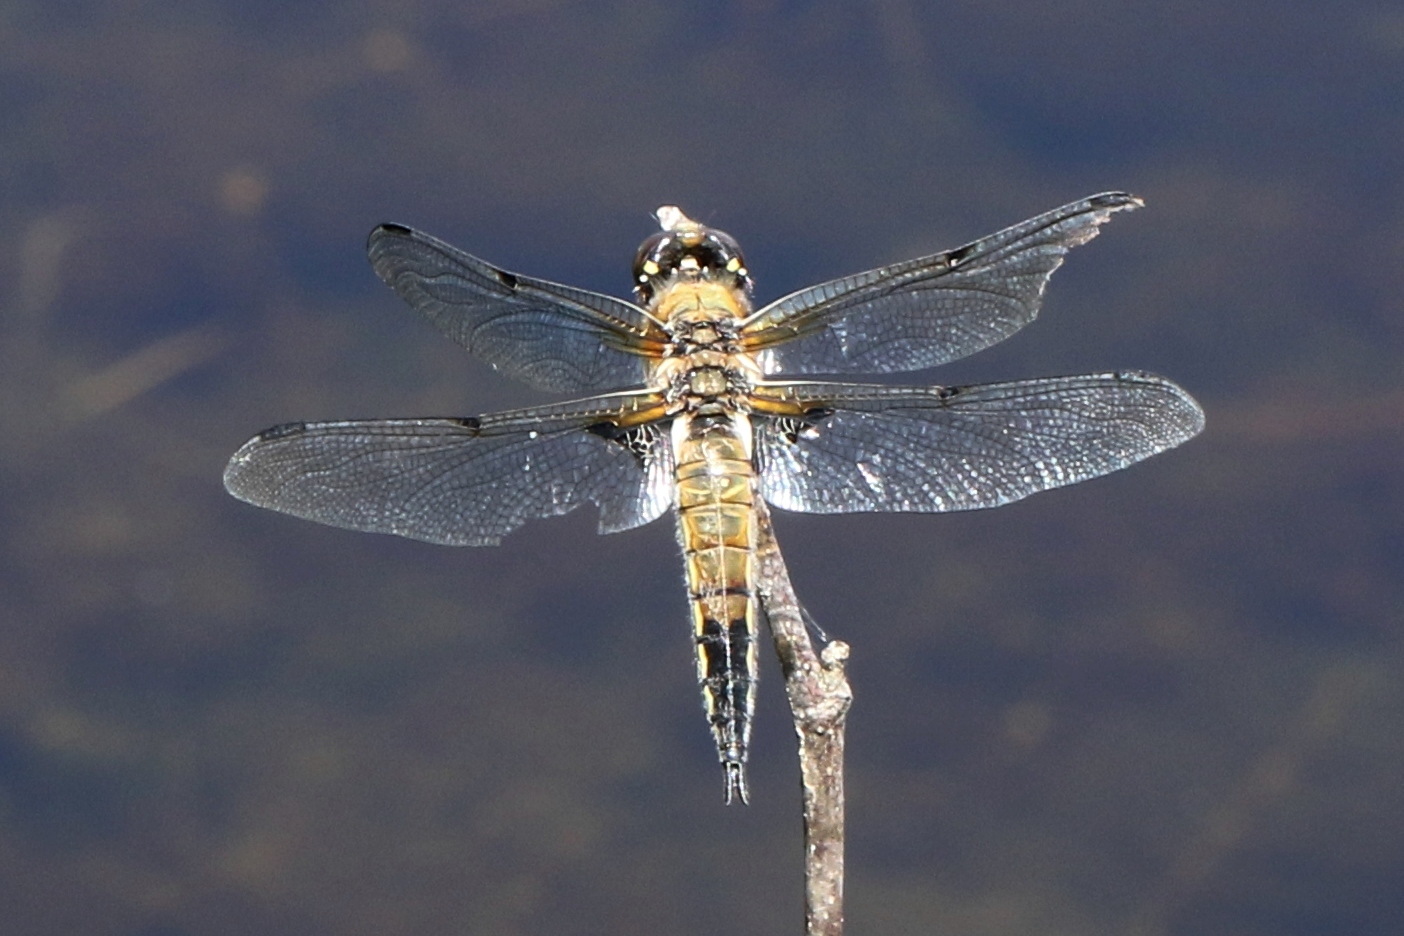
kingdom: Animalia
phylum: Arthropoda
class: Insecta
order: Odonata
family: Libellulidae
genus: Libellula
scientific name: Libellula quadrimaculata
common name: Four-spotted chaser
